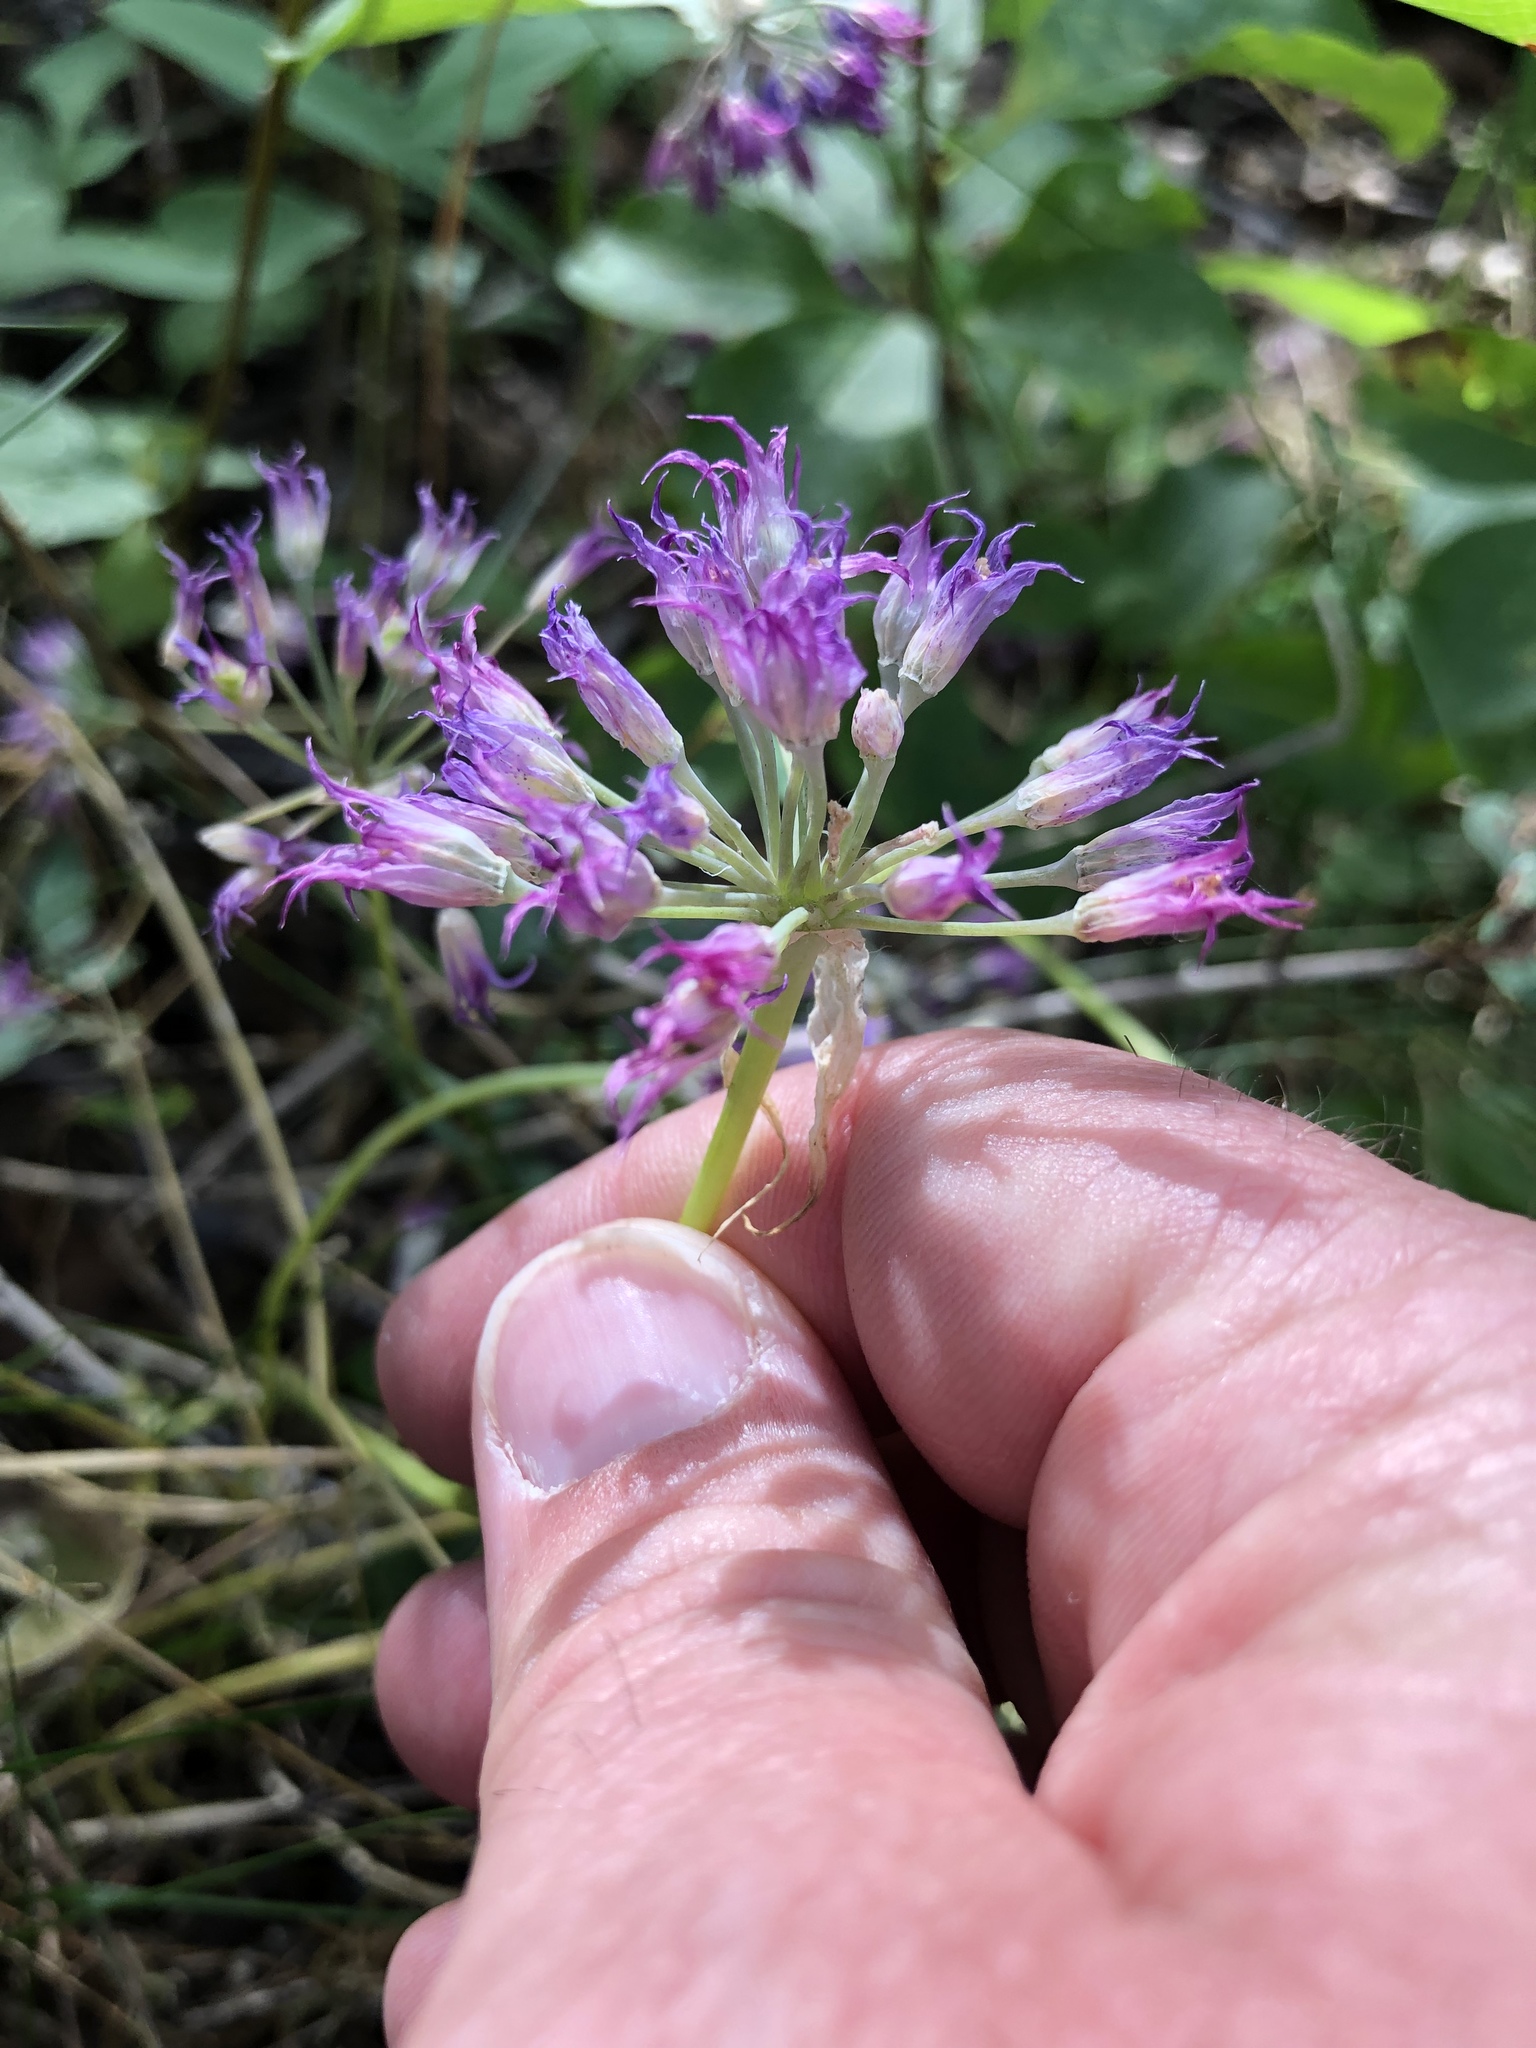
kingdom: Plantae
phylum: Tracheophyta
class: Liliopsida
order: Asparagales
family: Amaryllidaceae
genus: Allium
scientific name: Allium acuminatum
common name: Hooker's onion
